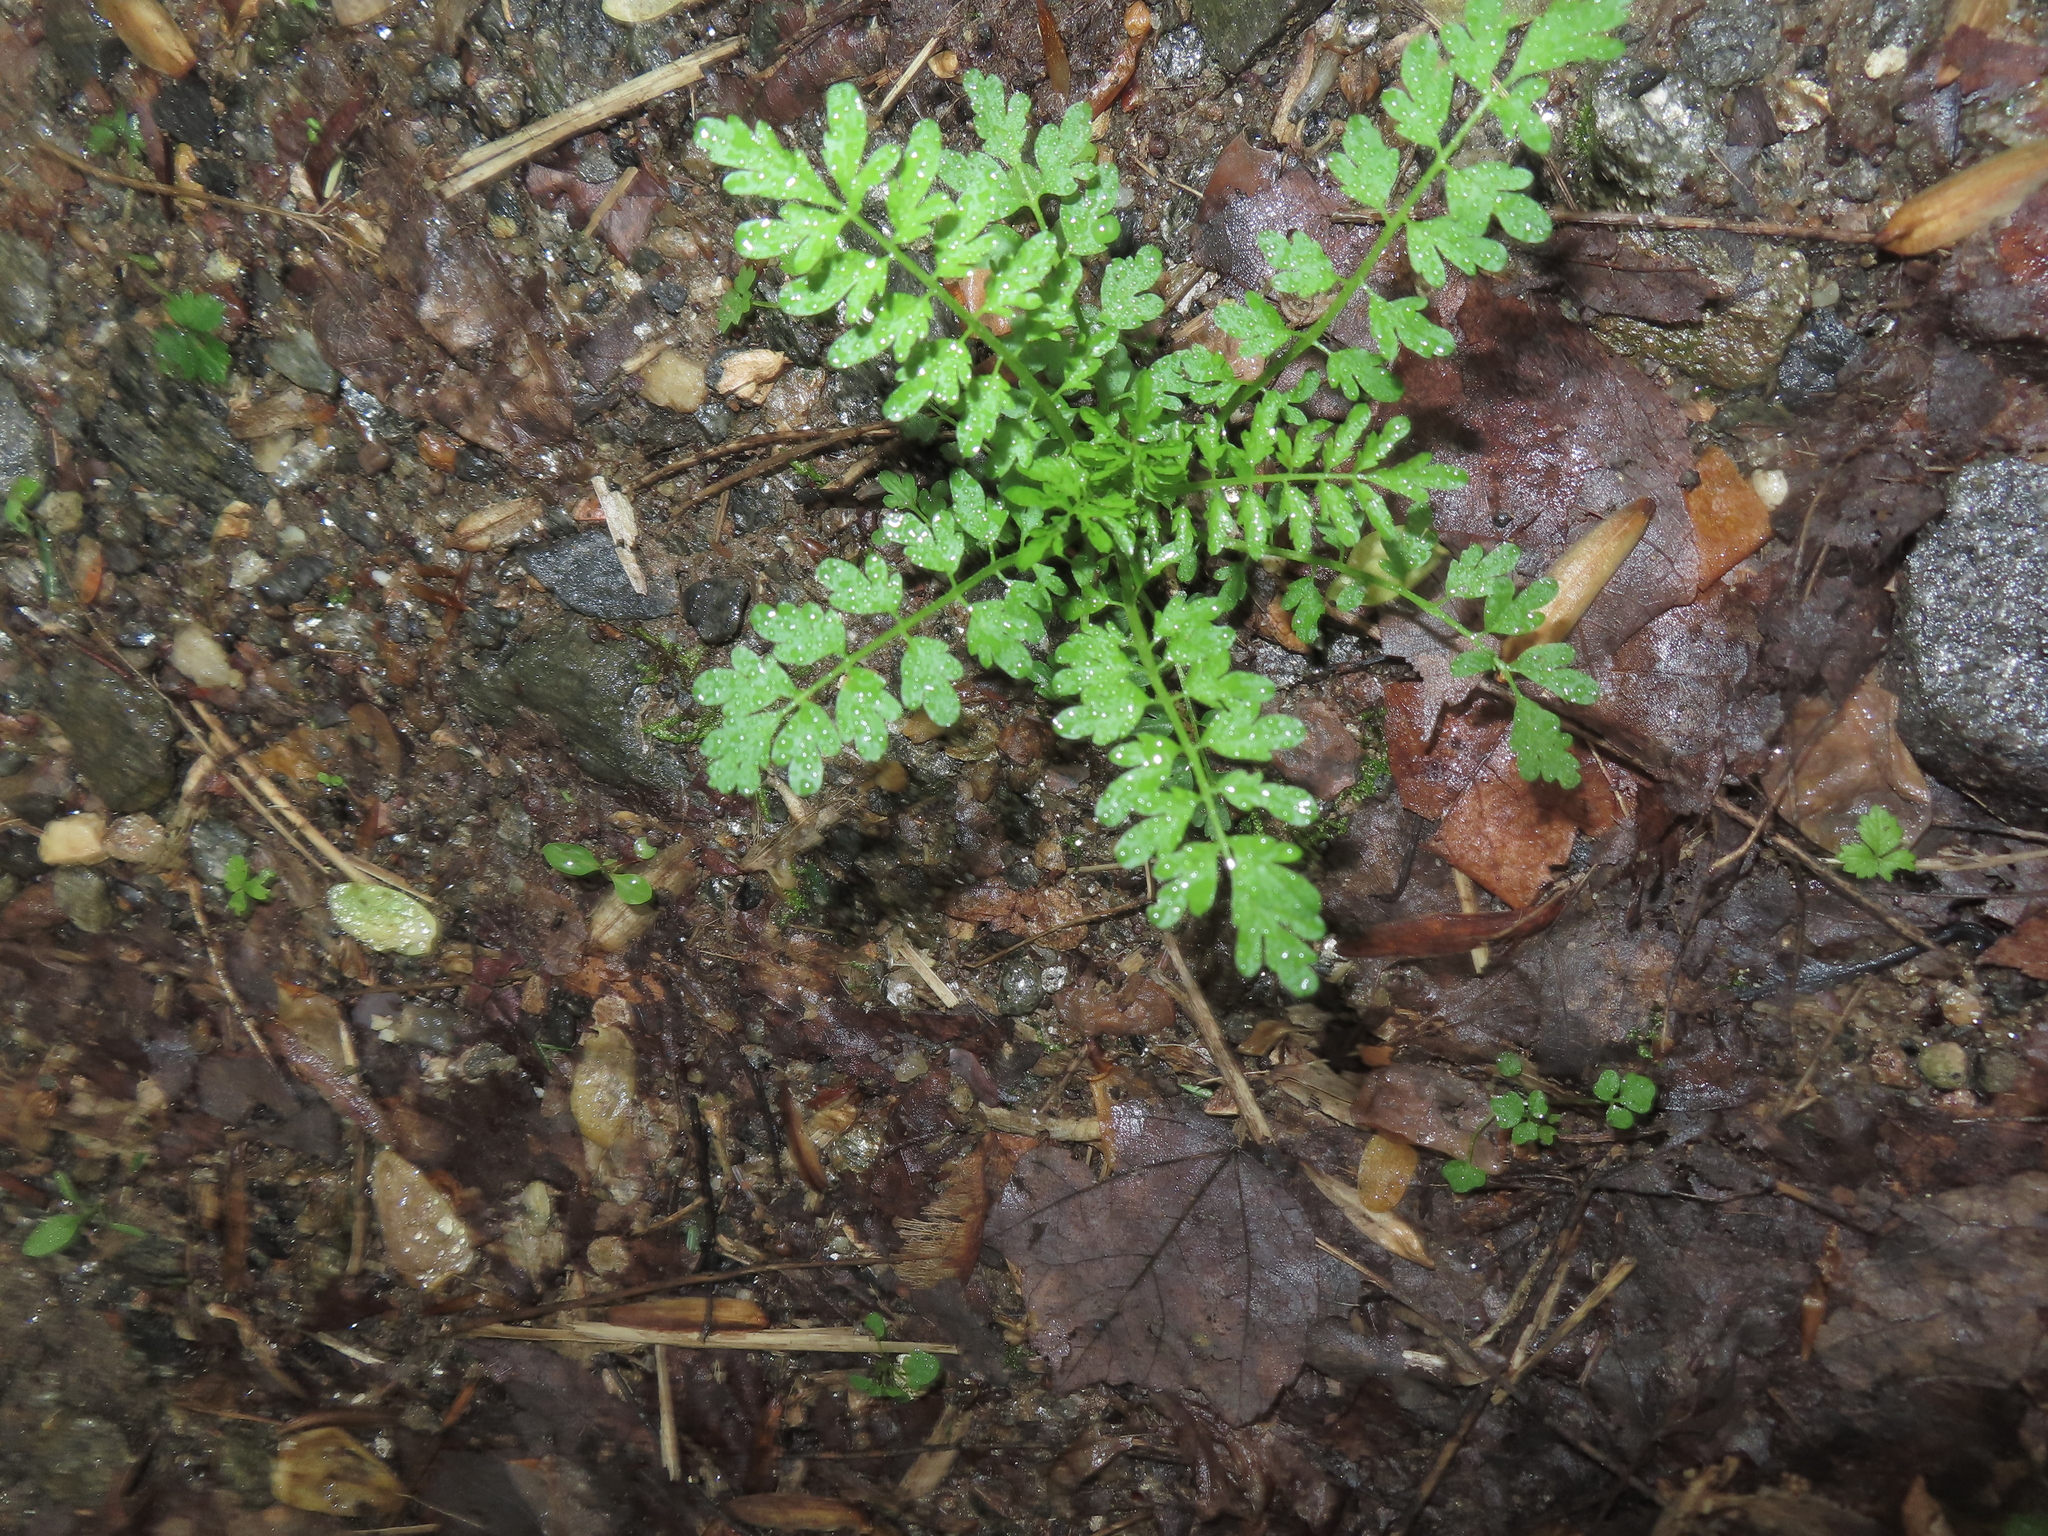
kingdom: Plantae
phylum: Tracheophyta
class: Magnoliopsida
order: Brassicales
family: Brassicaceae
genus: Cardamine
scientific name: Cardamine impatiens
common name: Narrow-leaved bitter-cress
